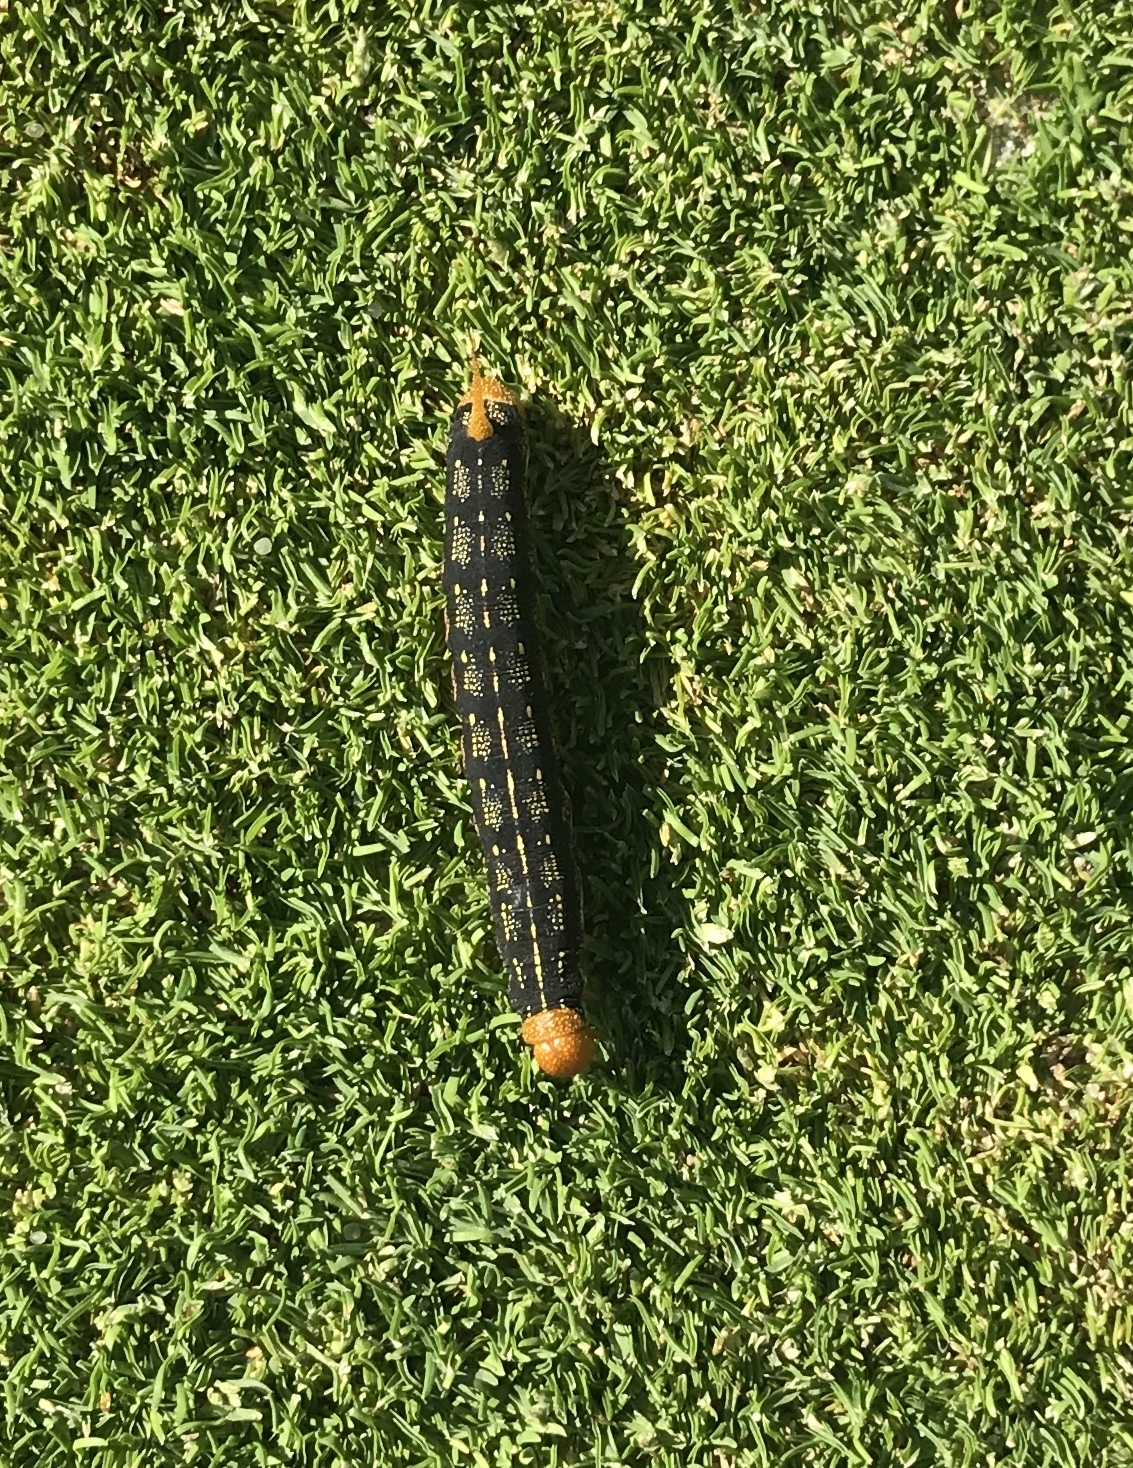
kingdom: Animalia
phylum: Arthropoda
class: Insecta
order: Lepidoptera
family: Sphingidae
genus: Hyles
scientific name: Hyles lineata
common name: White-lined sphinx
